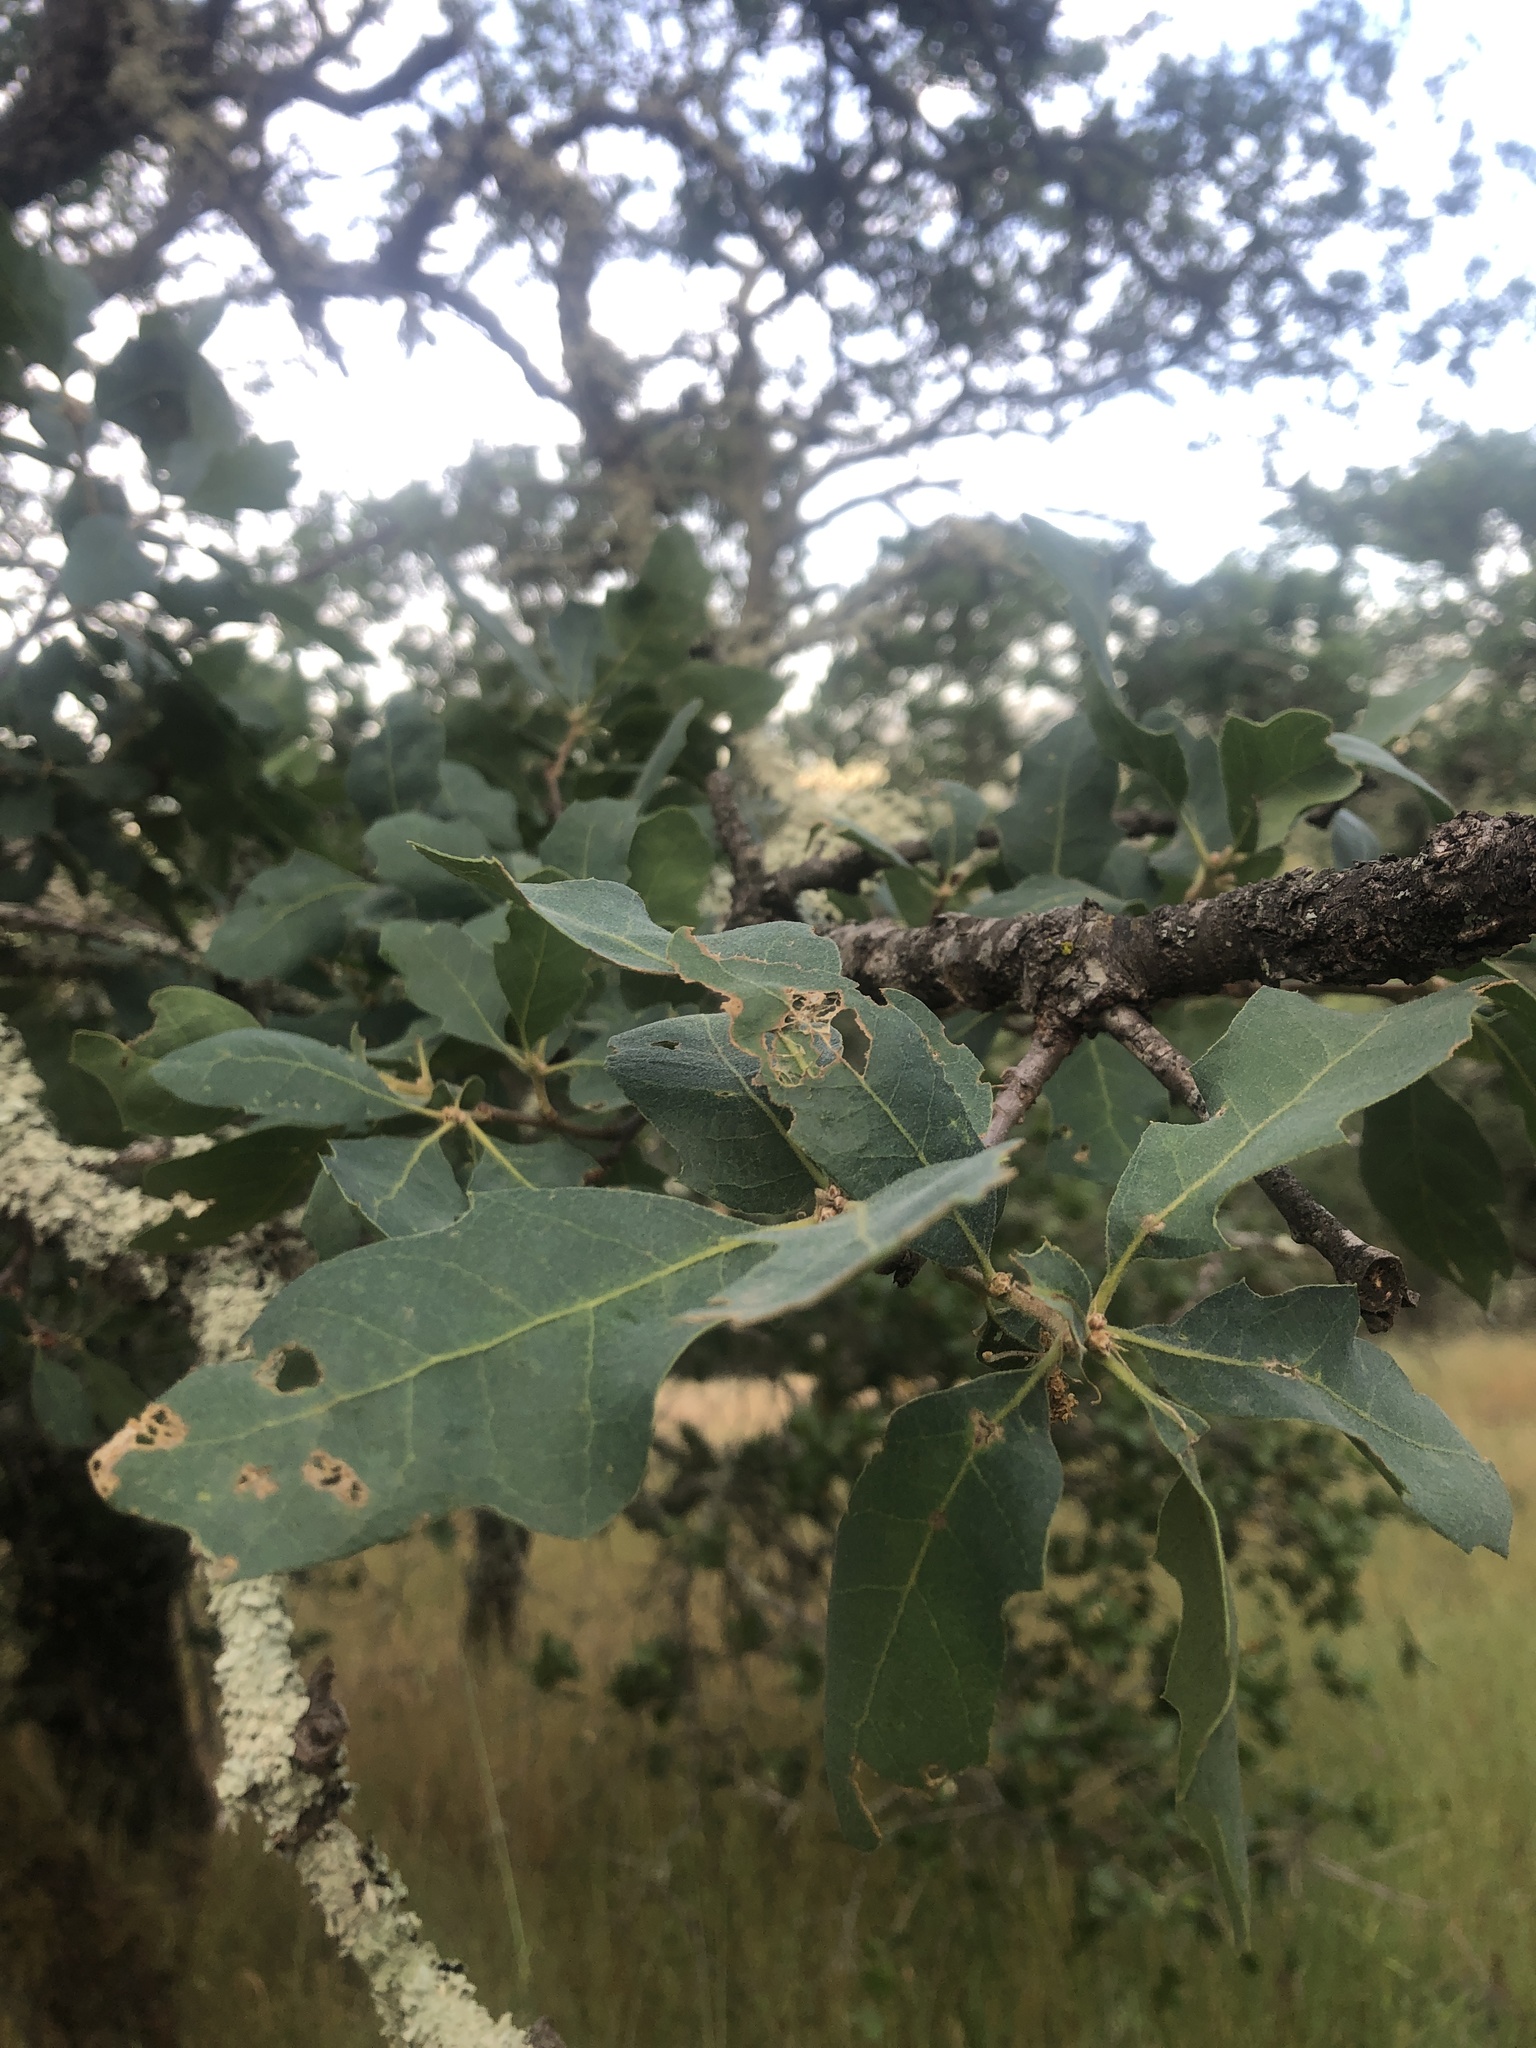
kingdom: Plantae
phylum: Tracheophyta
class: Magnoliopsida
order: Fagales
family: Fagaceae
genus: Quercus
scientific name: Quercus douglasii
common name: Blue oak
